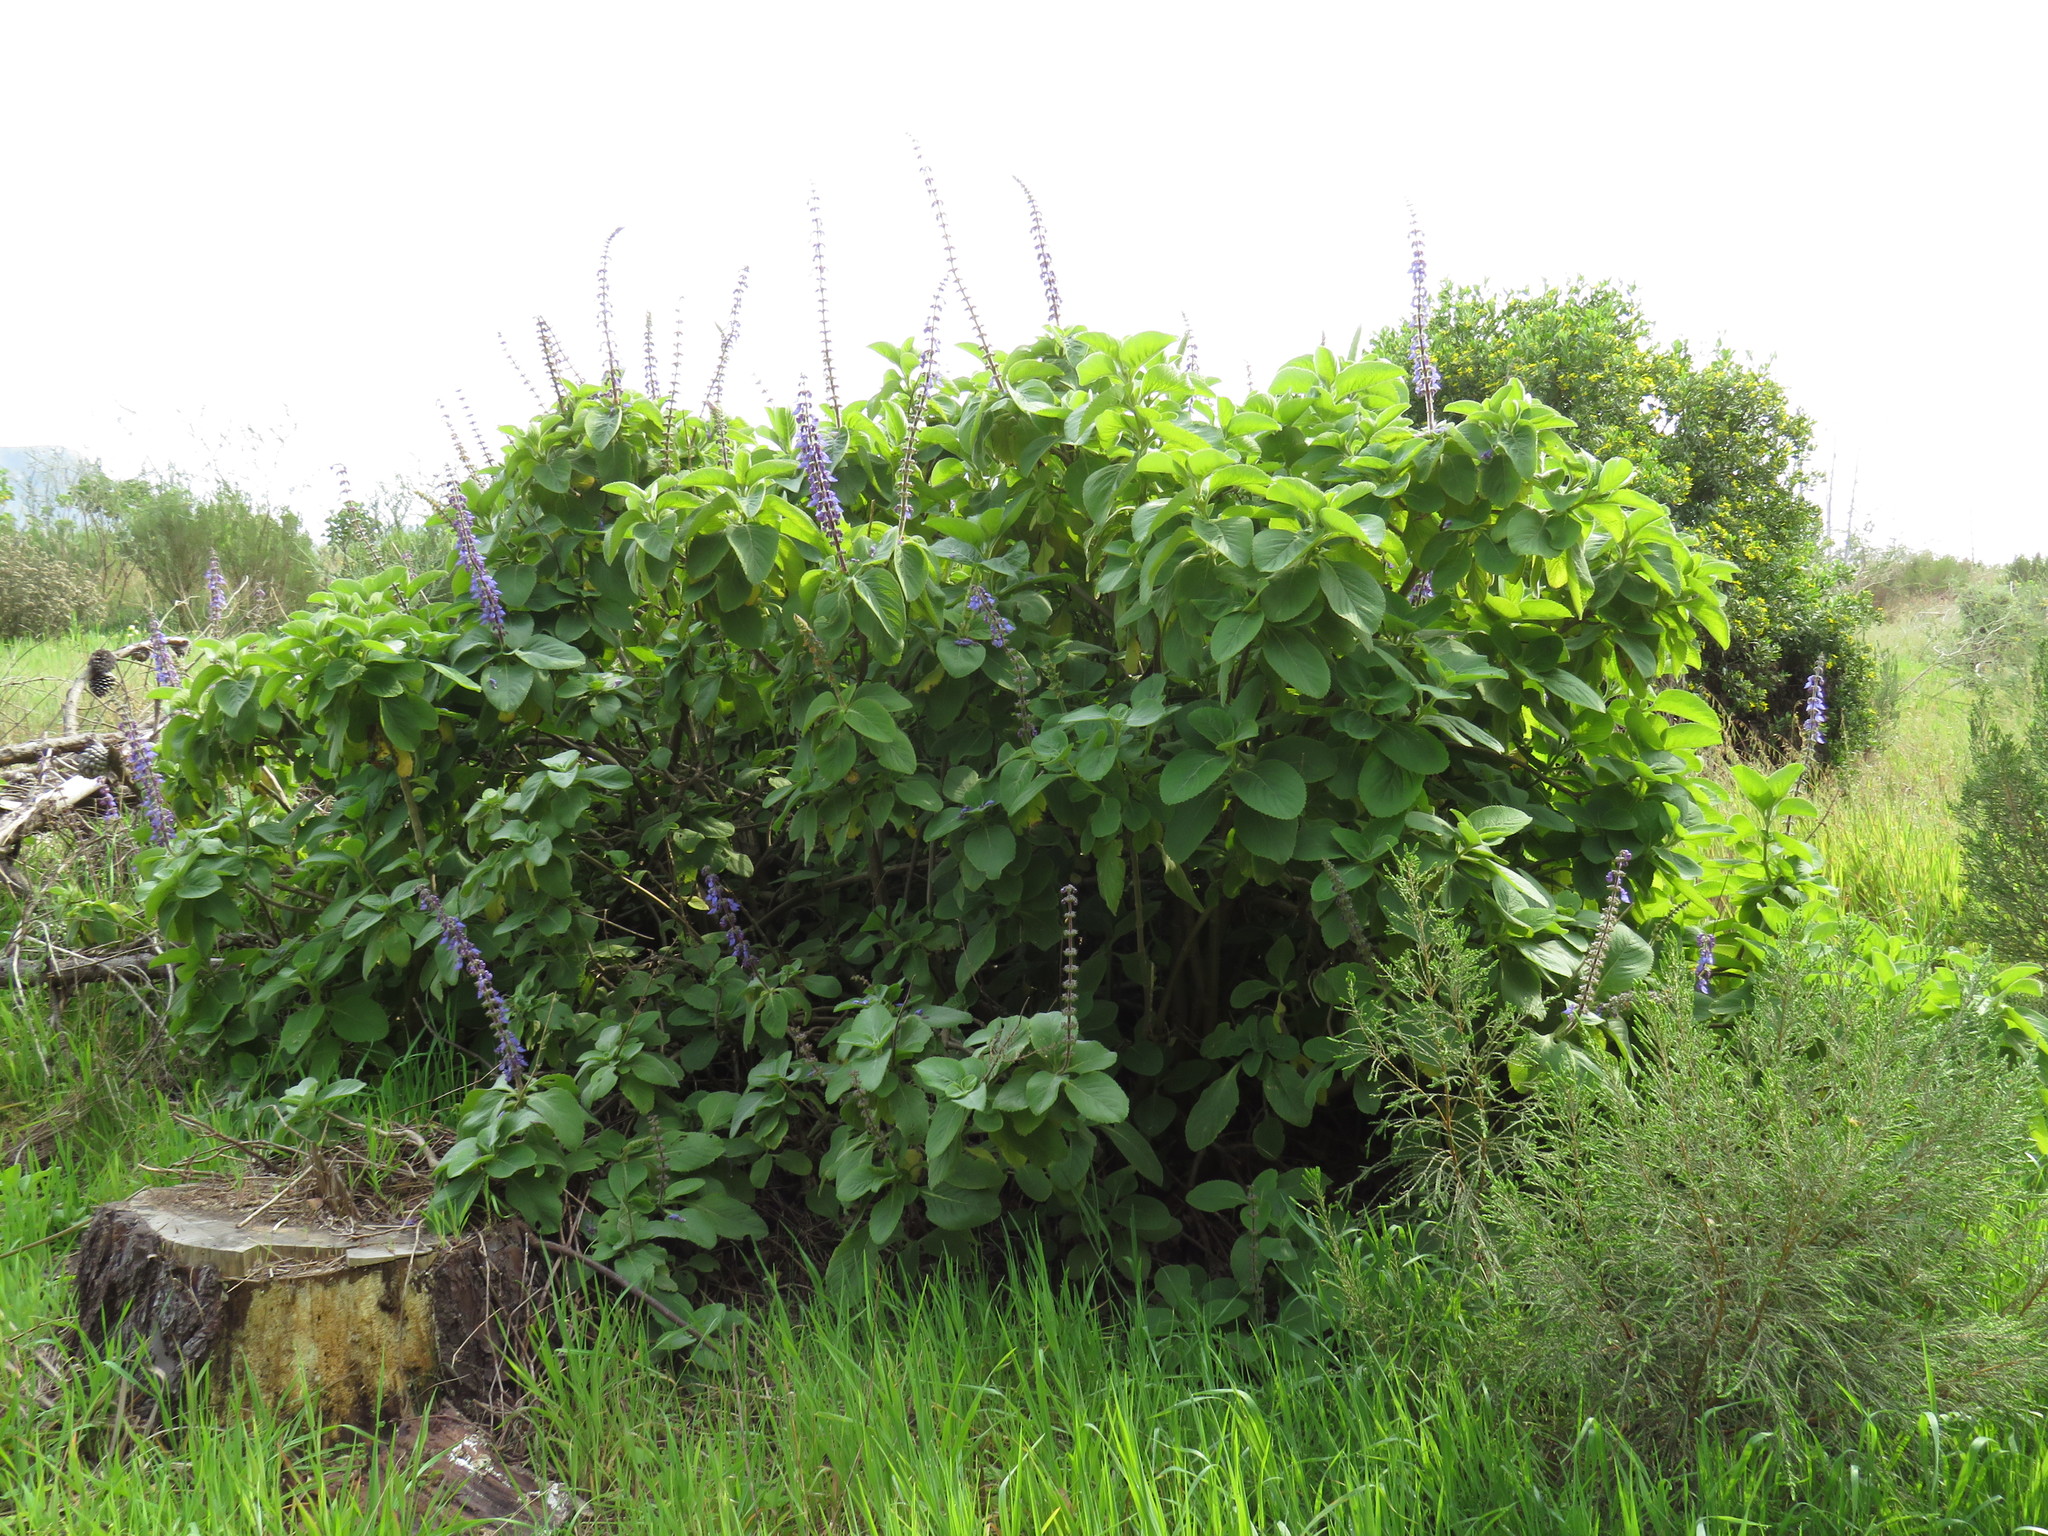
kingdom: Plantae
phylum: Tracheophyta
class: Magnoliopsida
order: Lamiales
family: Lamiaceae
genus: Coleus
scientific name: Coleus barbatus
